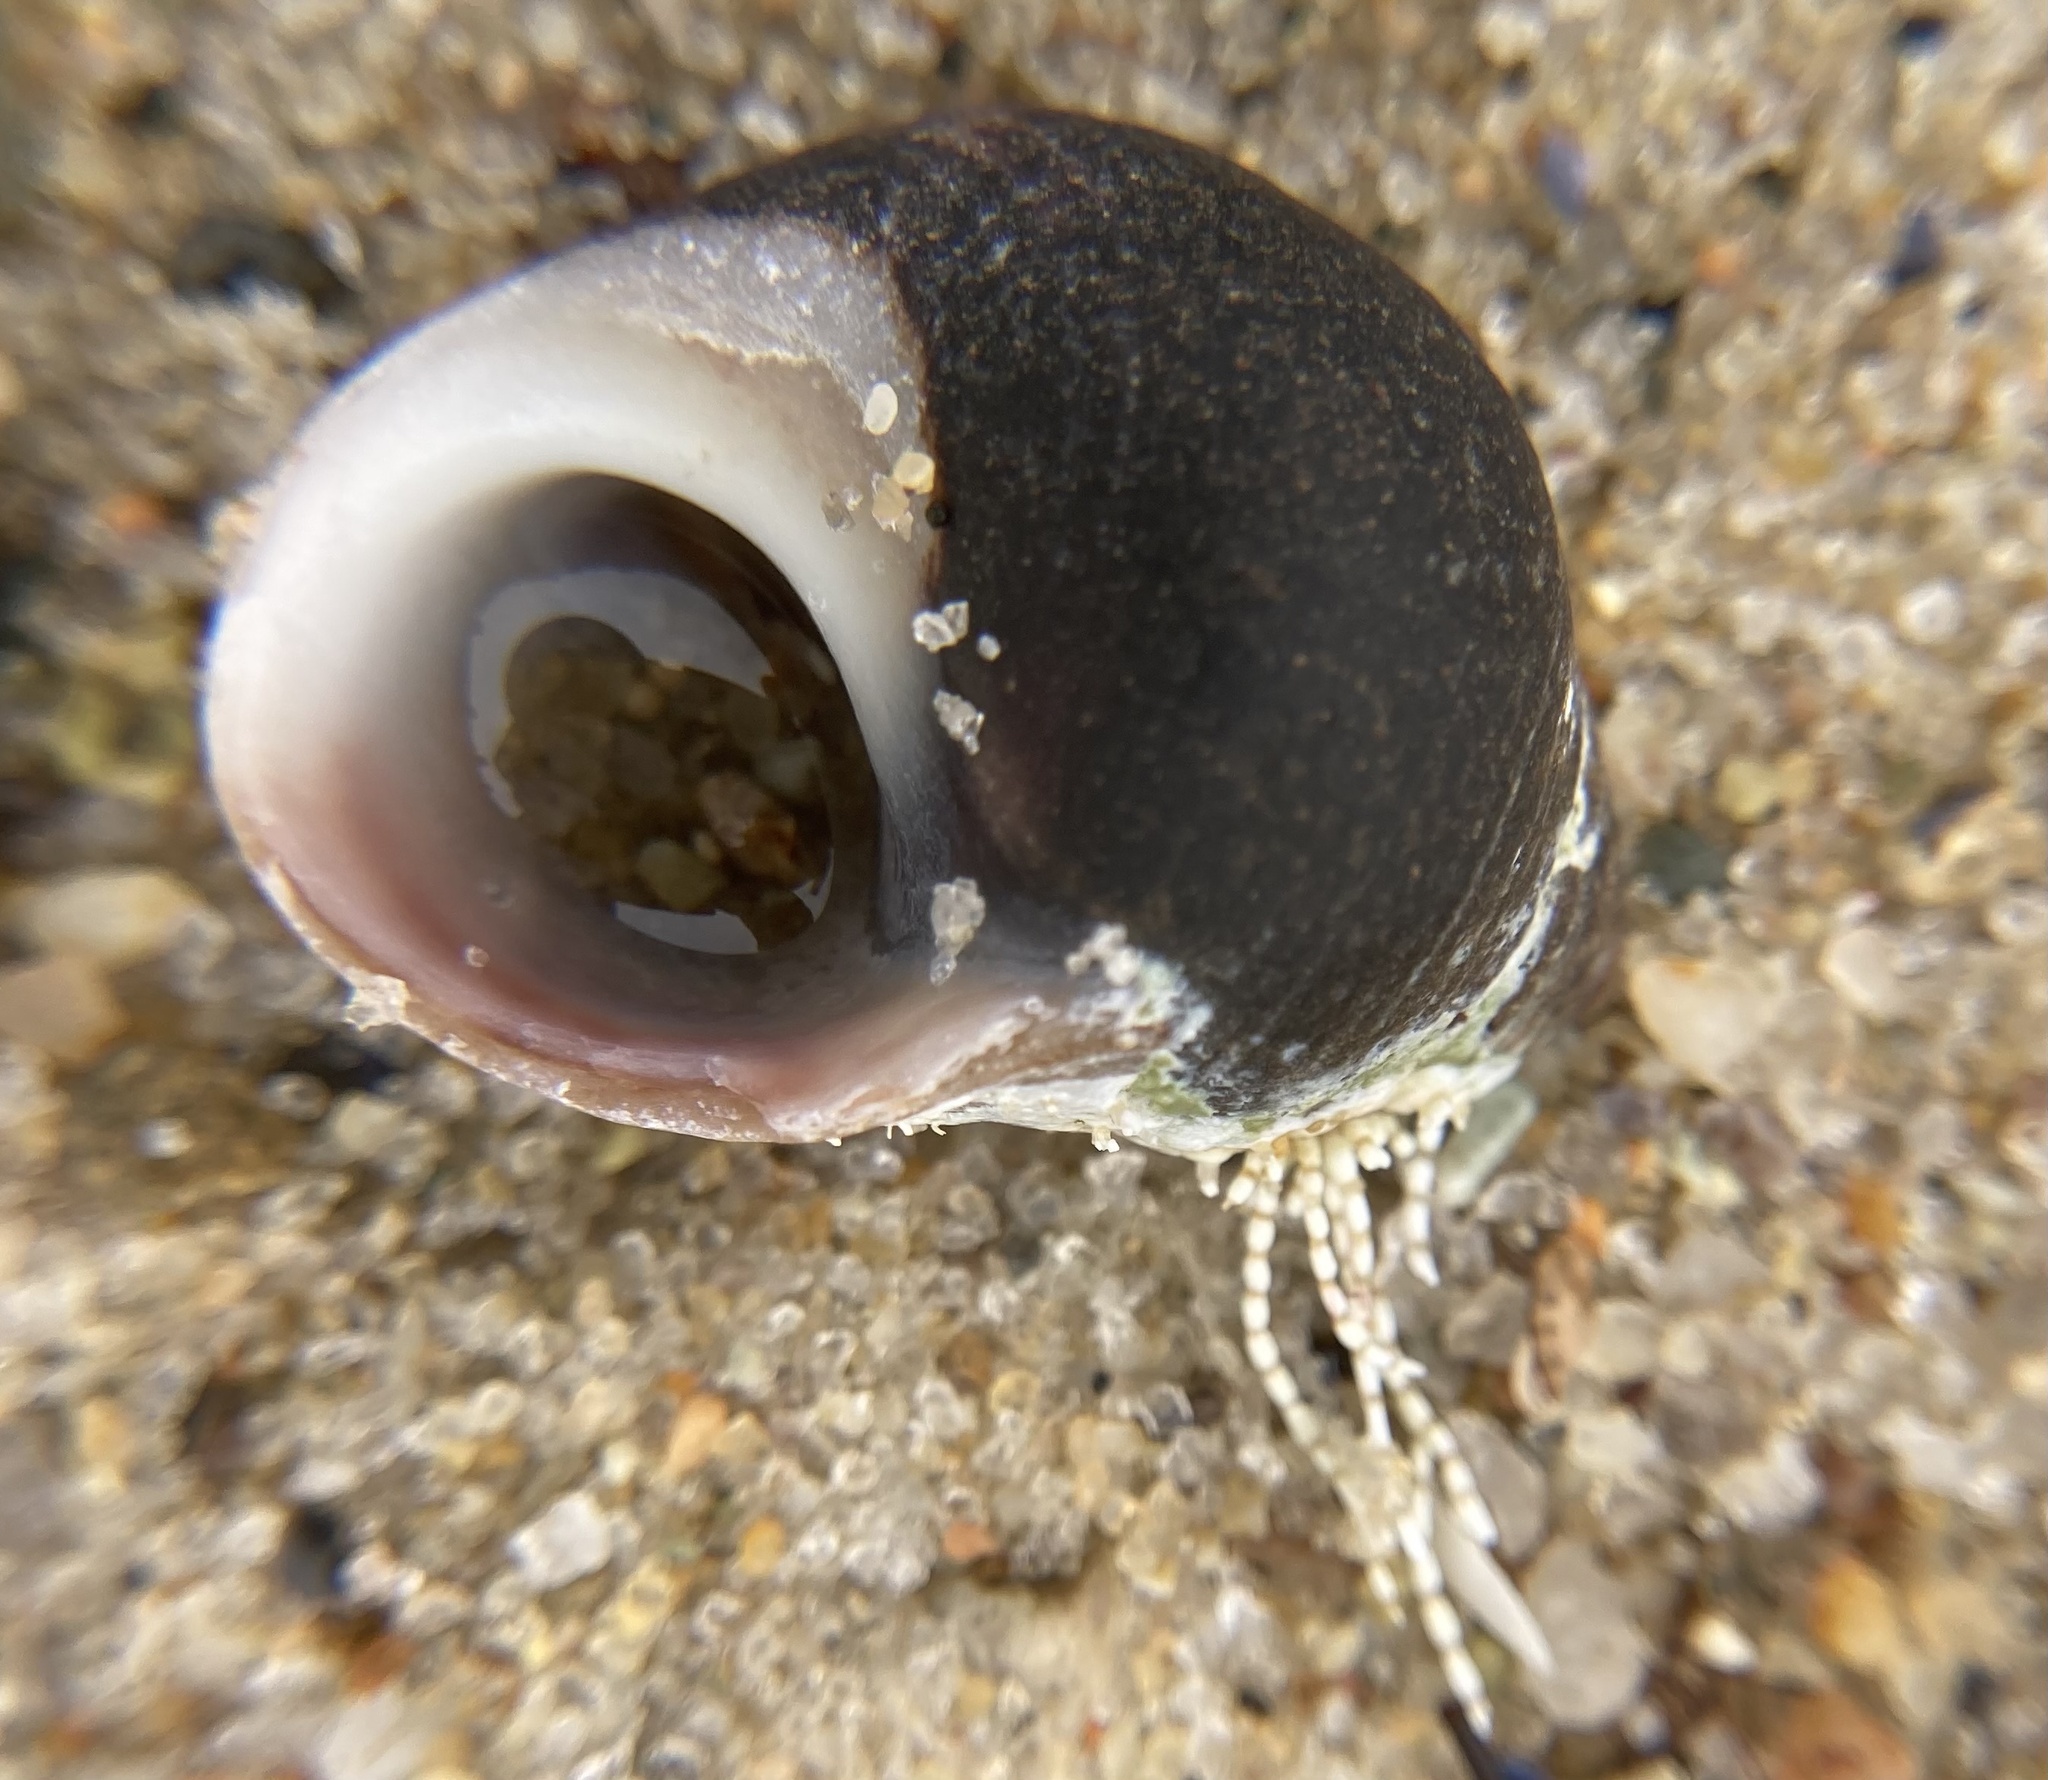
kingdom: Animalia
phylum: Mollusca
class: Gastropoda
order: Littorinimorpha
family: Littorinidae
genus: Littorina
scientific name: Littorina littorea
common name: Common periwinkle
